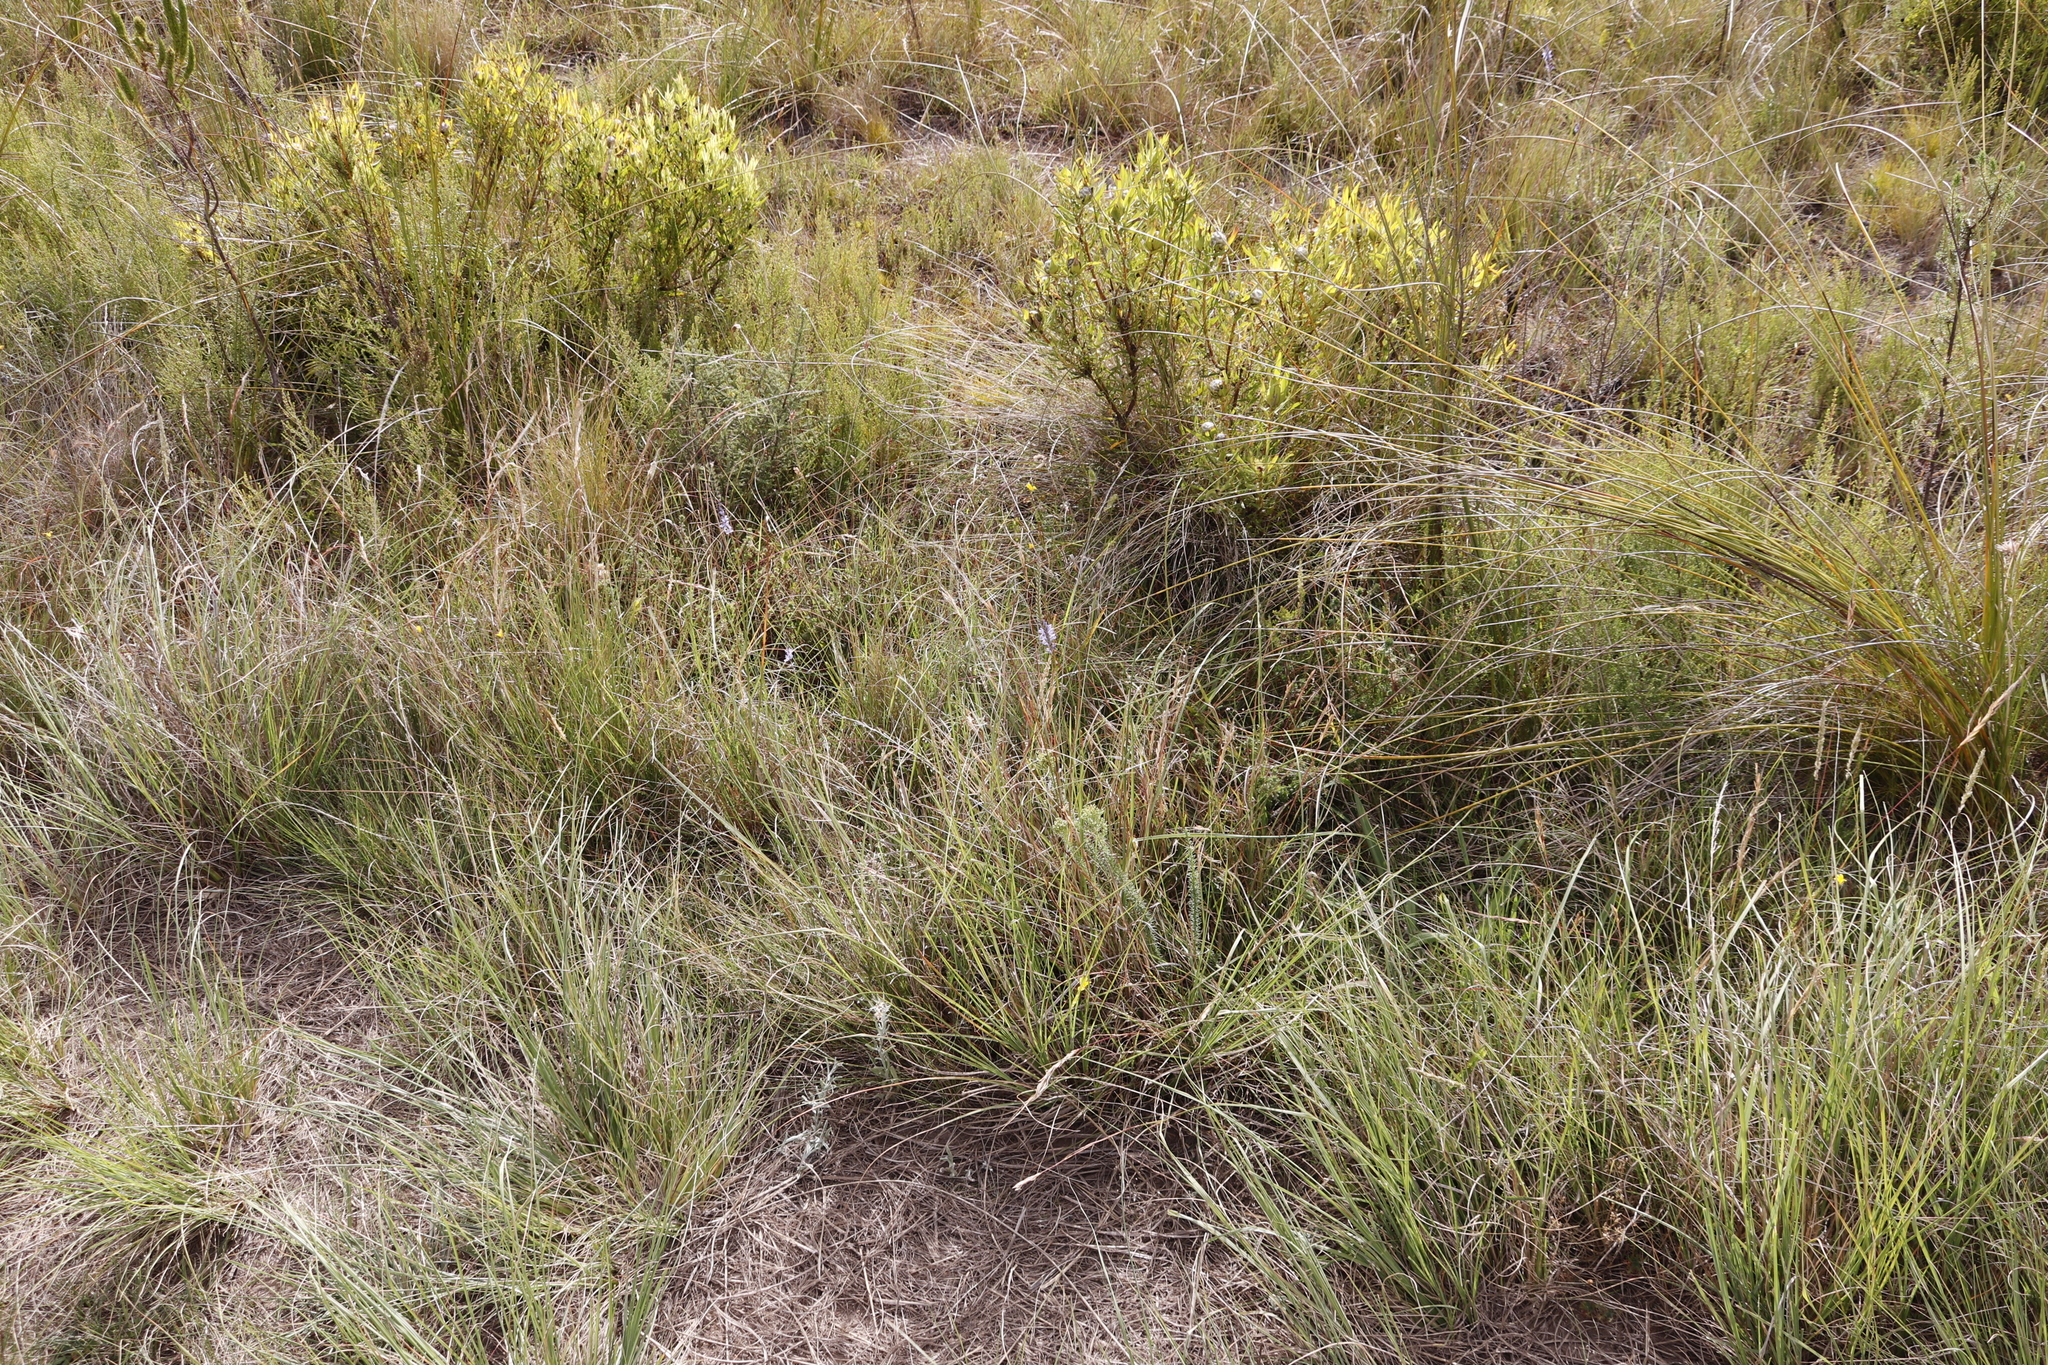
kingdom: Plantae
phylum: Tracheophyta
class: Magnoliopsida
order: Proteales
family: Proteaceae
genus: Leucadendron
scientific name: Leucadendron salignum
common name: Common sunshine conebush
